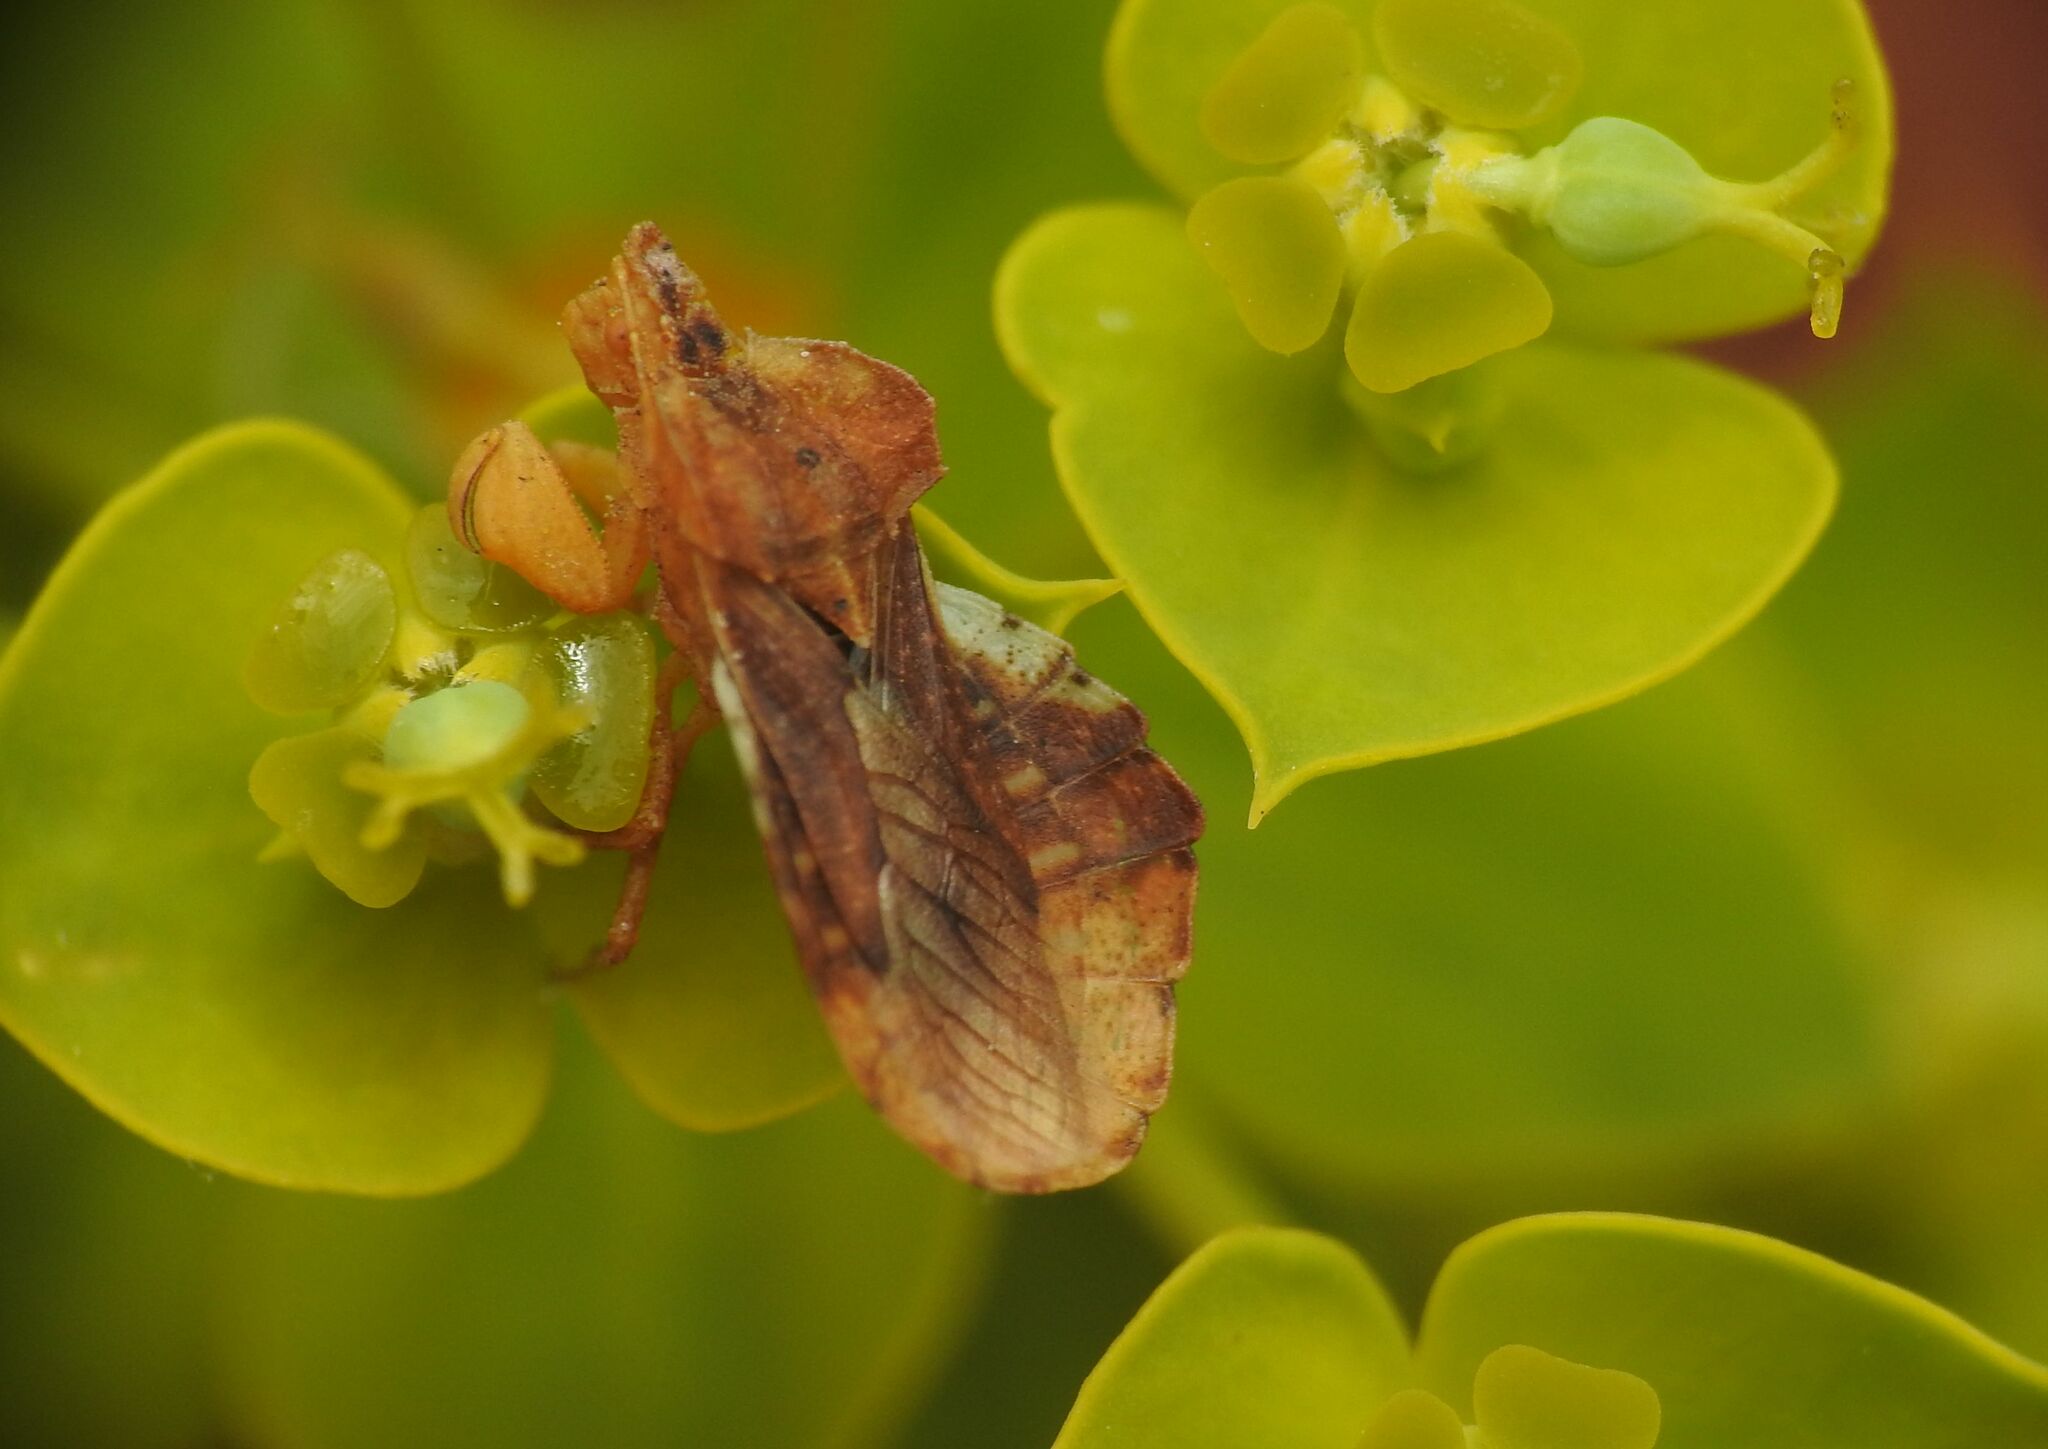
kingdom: Animalia
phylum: Arthropoda
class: Insecta
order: Hemiptera
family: Reduviidae
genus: Phymata
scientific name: Phymata crassipes
